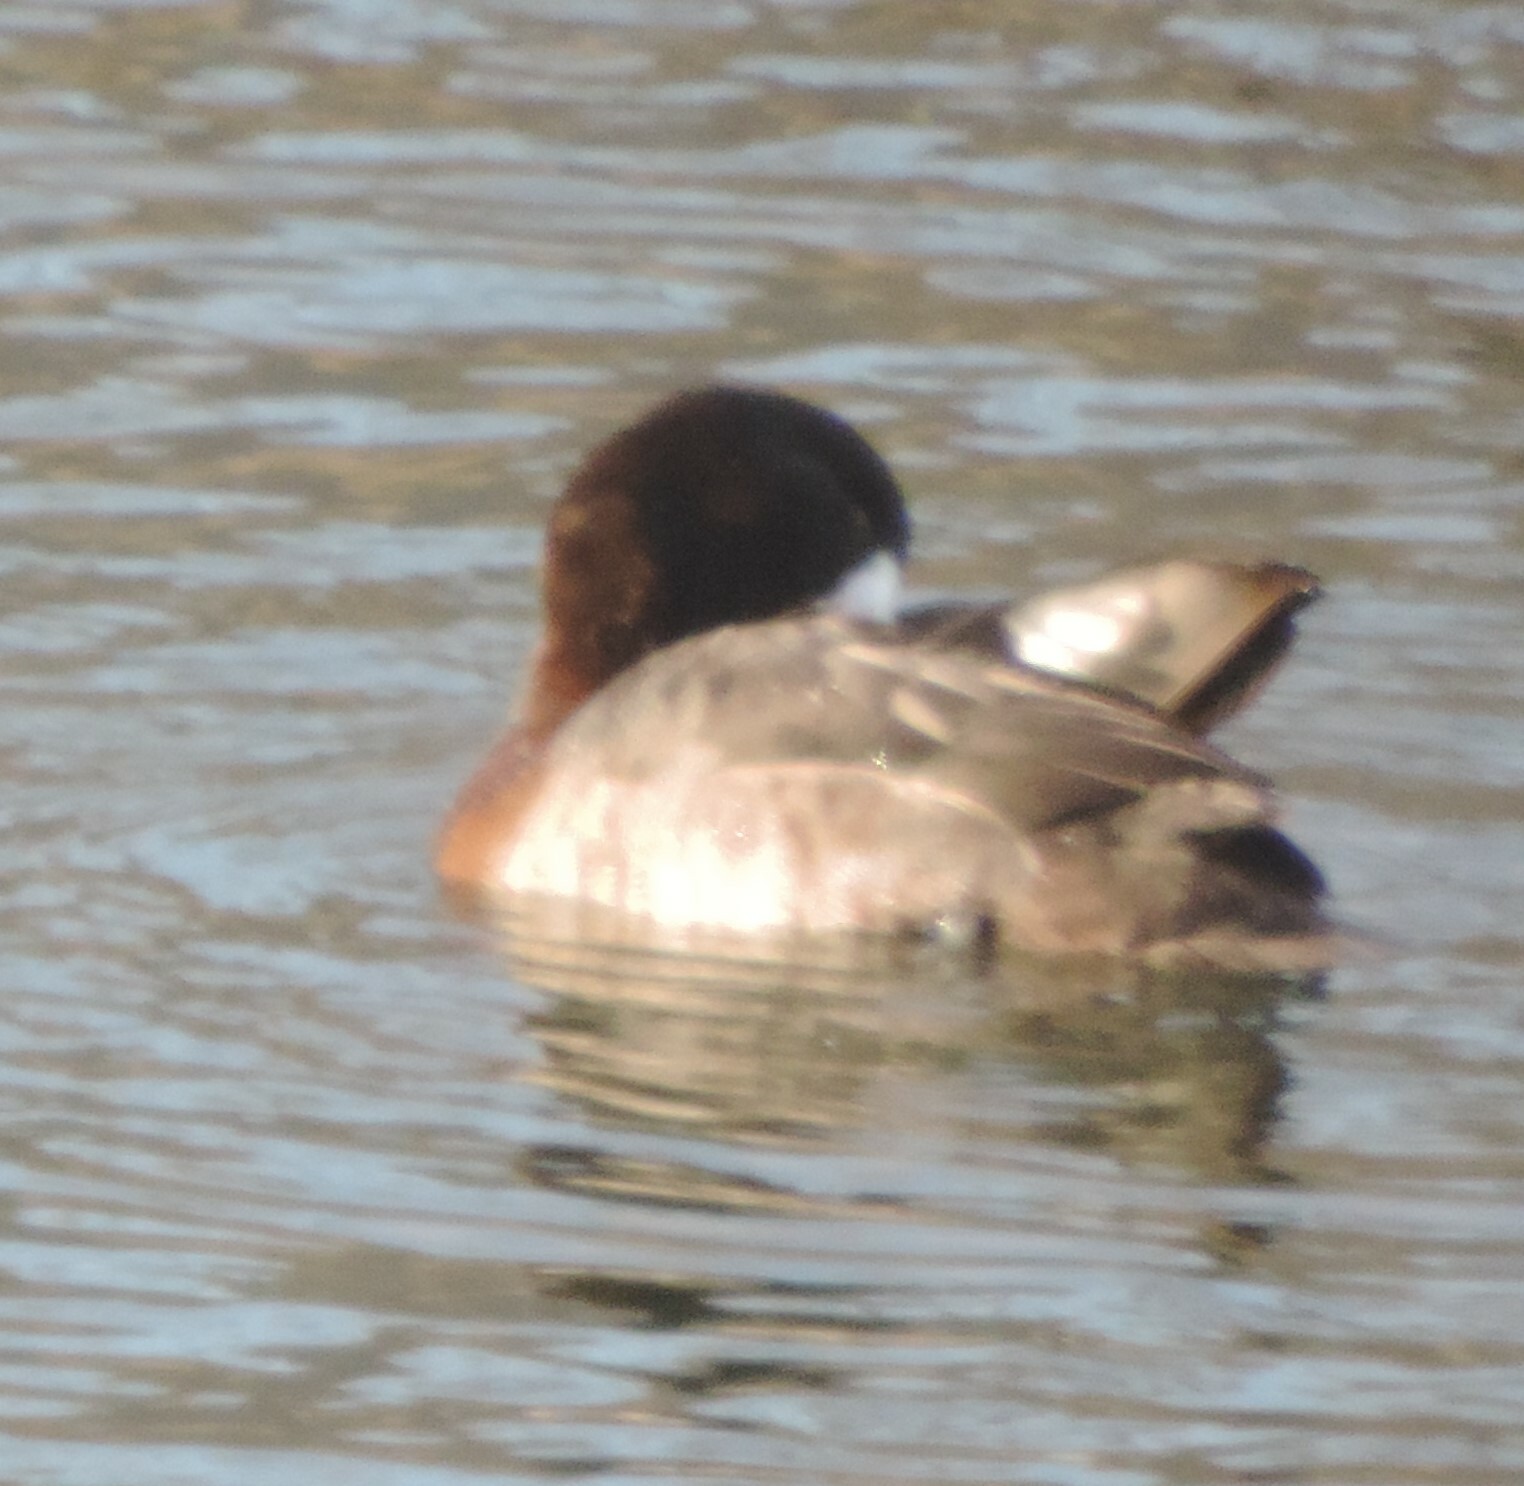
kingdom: Animalia
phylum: Chordata
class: Aves
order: Anseriformes
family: Anatidae
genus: Aythya
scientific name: Aythya marila
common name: Greater scaup
